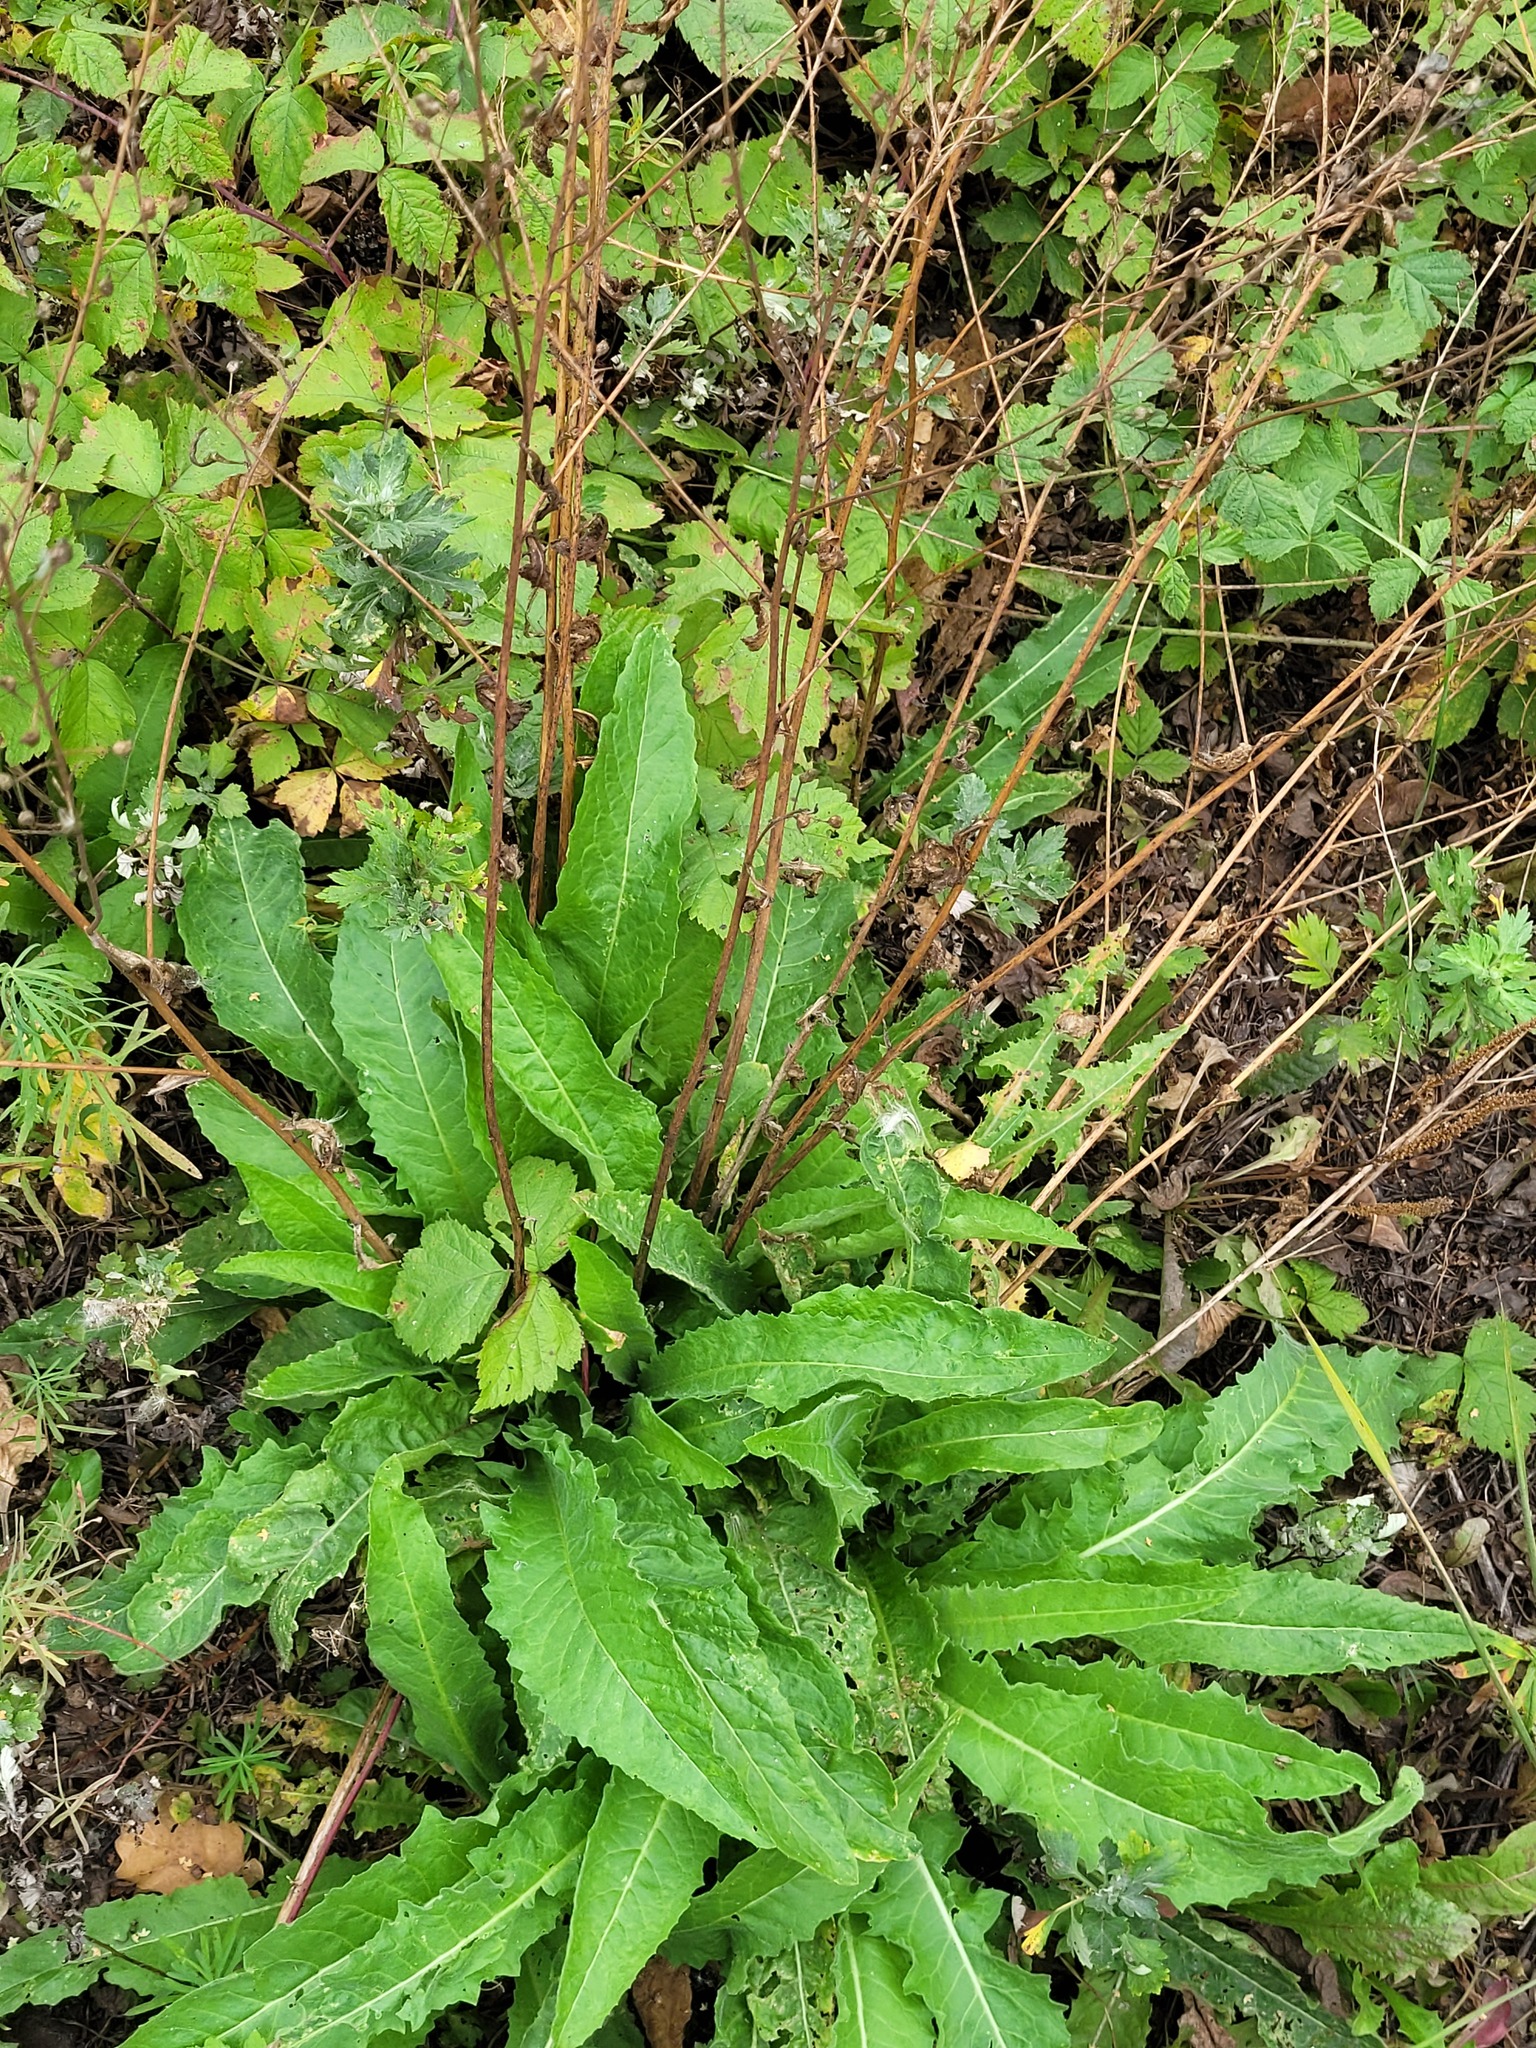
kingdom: Plantae
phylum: Tracheophyta
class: Magnoliopsida
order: Brassicales
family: Brassicaceae
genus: Bunias
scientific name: Bunias orientalis
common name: Warty-cabbage
